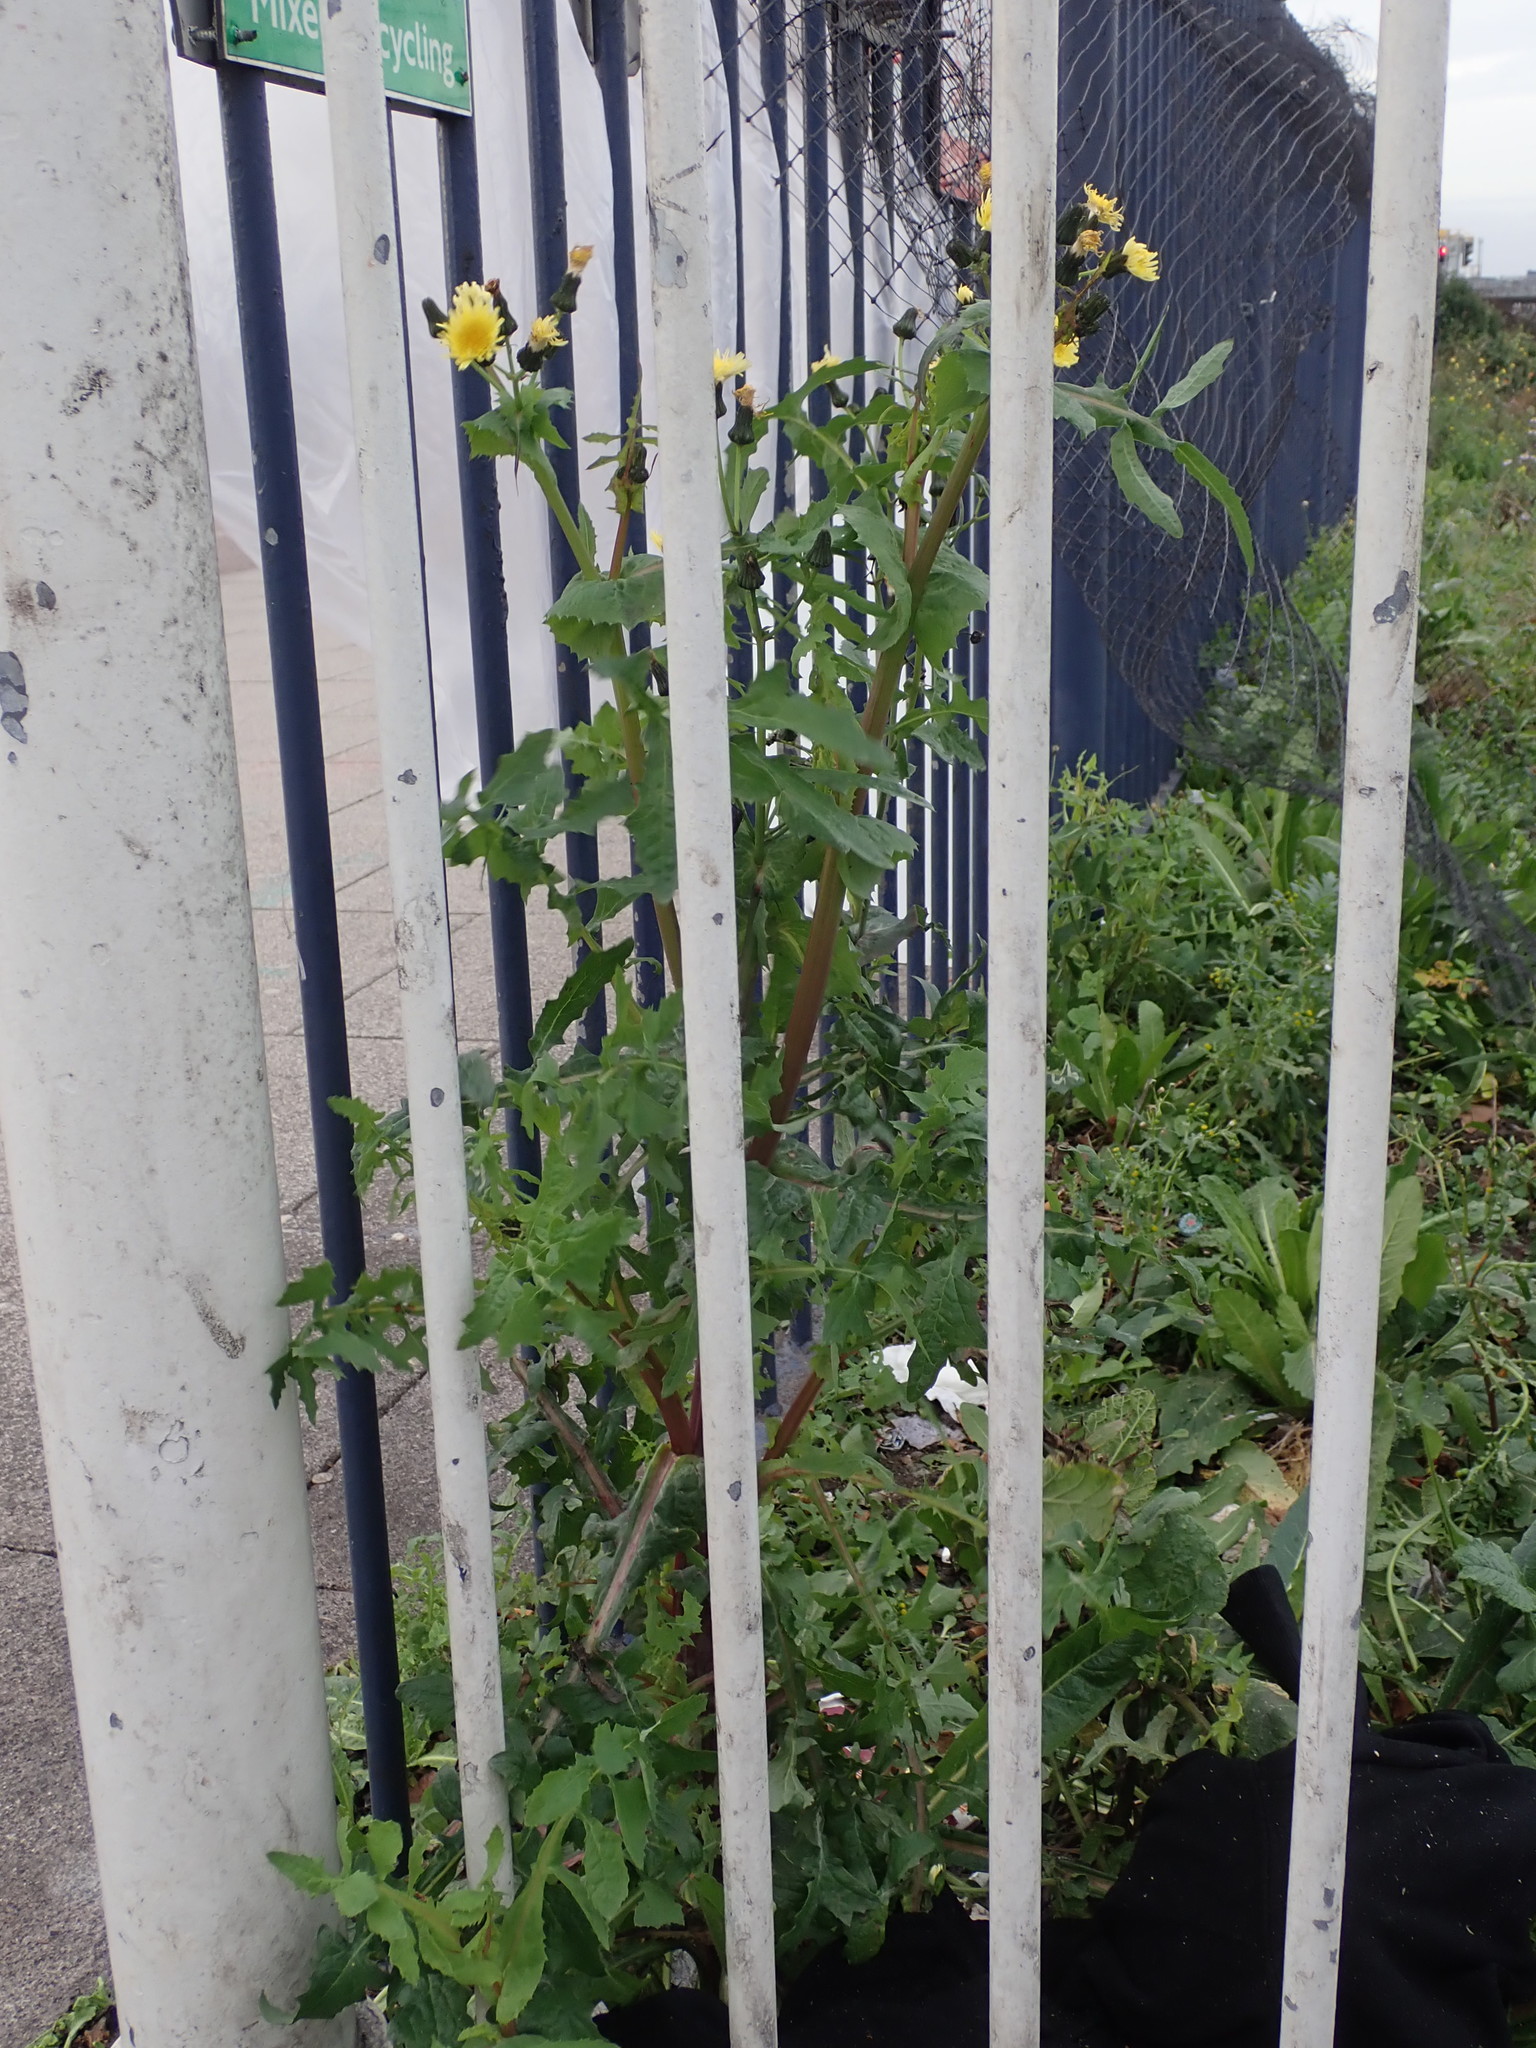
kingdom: Plantae
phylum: Tracheophyta
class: Magnoliopsida
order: Asterales
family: Asteraceae
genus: Sonchus
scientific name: Sonchus oleraceus
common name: Common sowthistle
